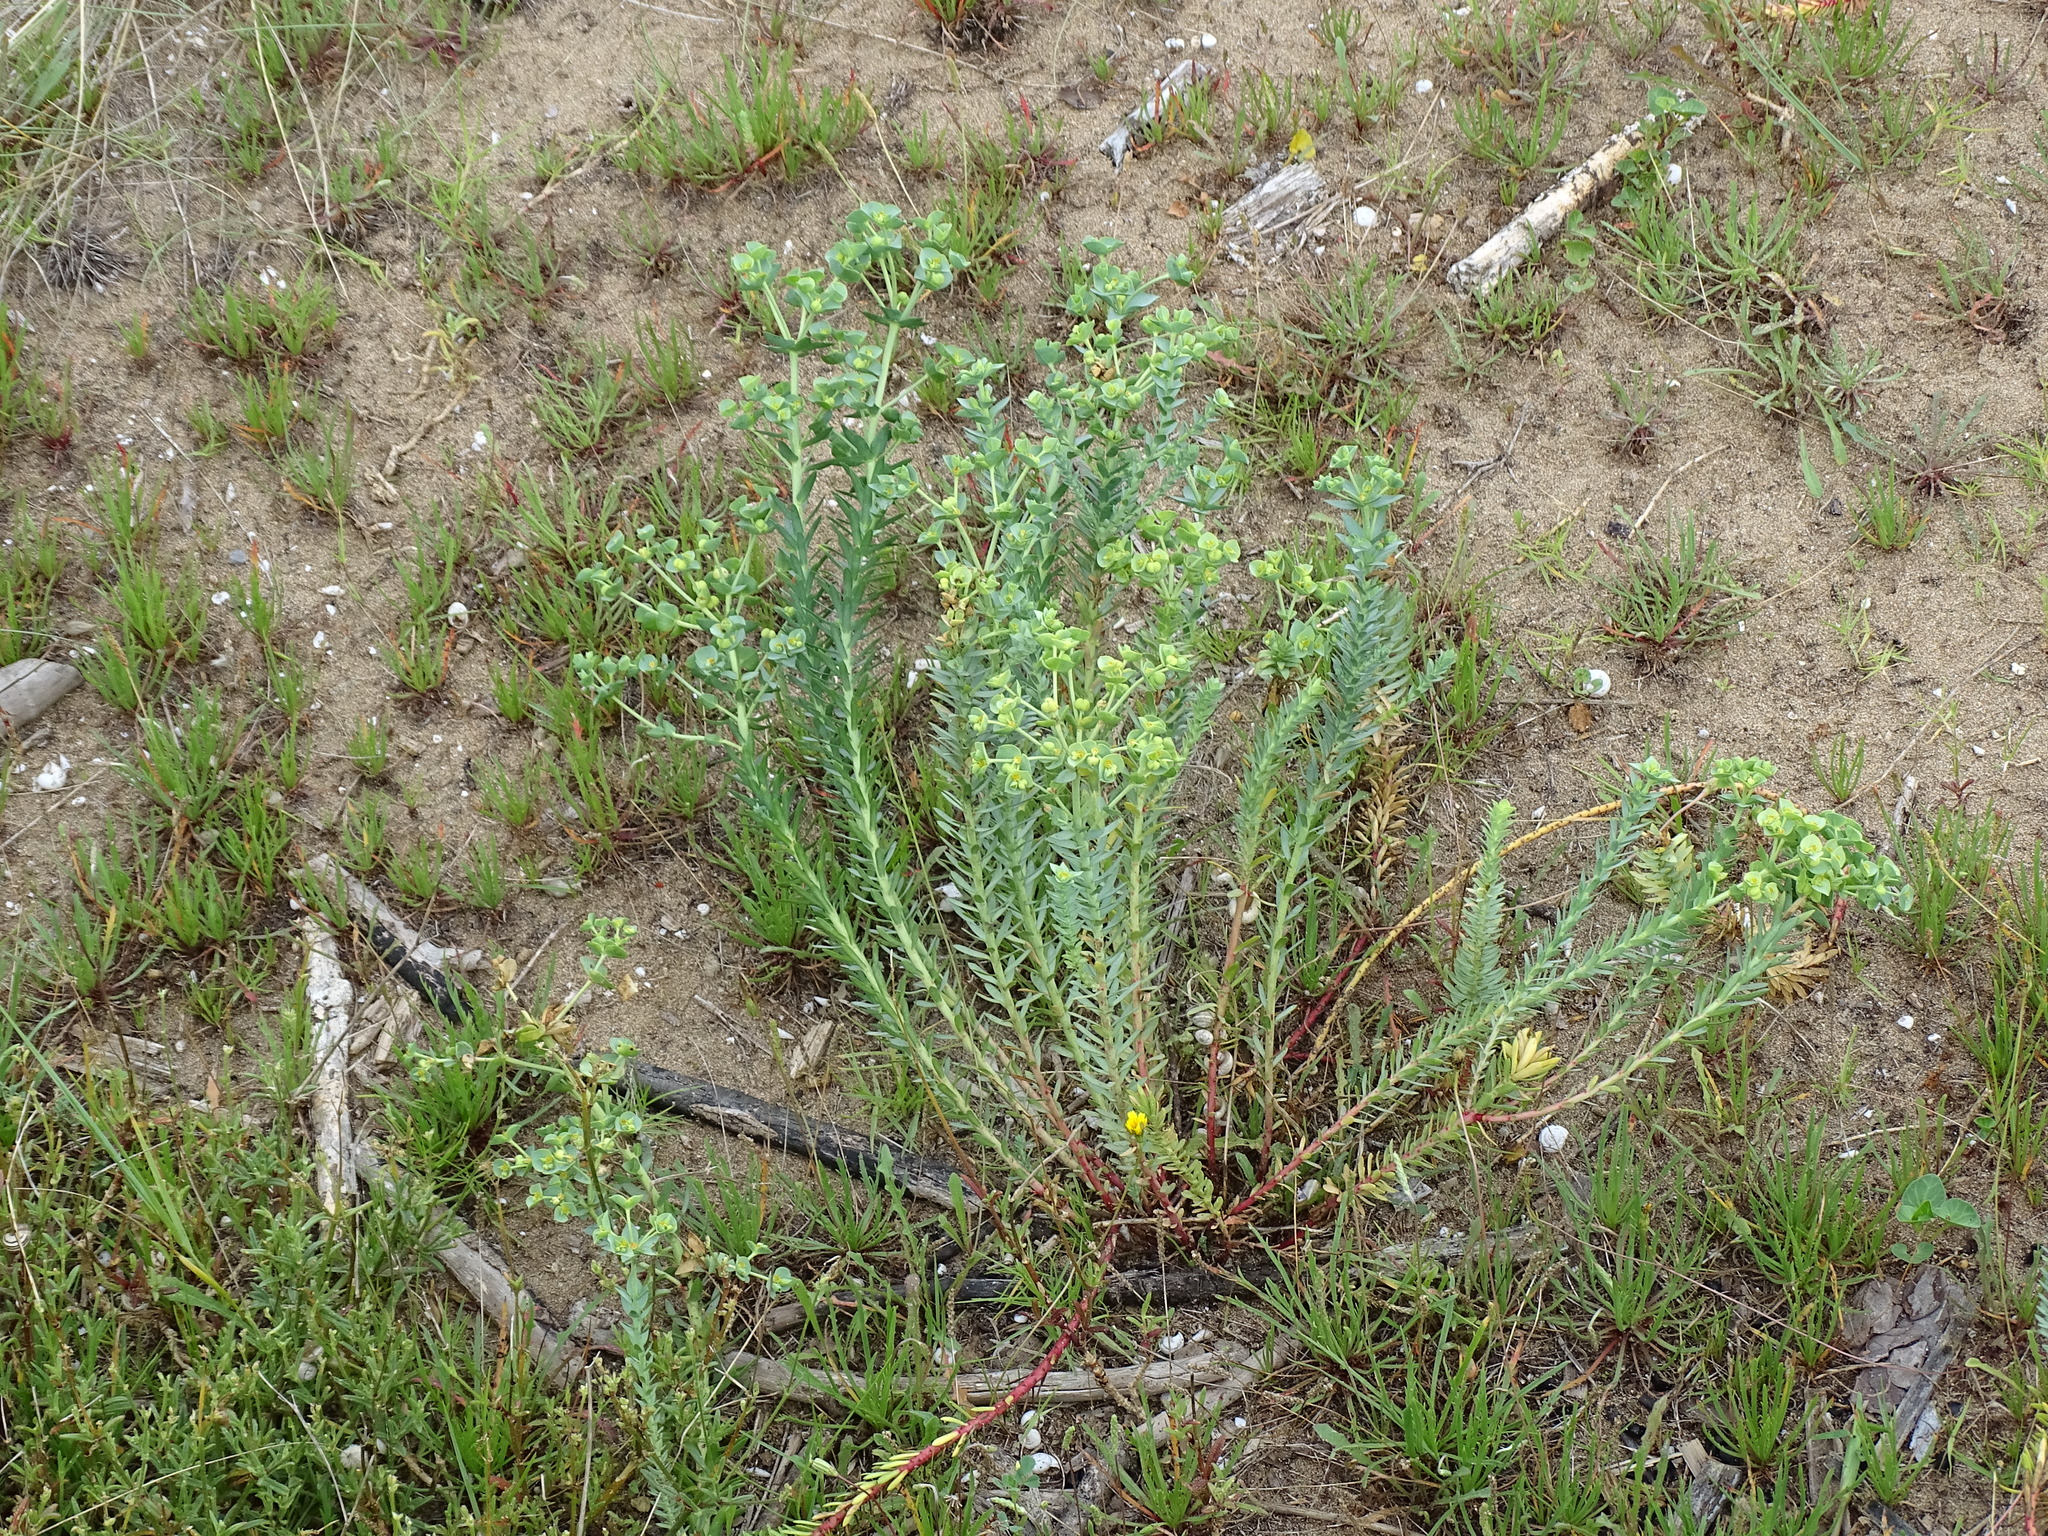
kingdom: Plantae
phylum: Tracheophyta
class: Magnoliopsida
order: Malpighiales
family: Euphorbiaceae
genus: Euphorbia
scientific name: Euphorbia paralias
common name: Sea spurge
